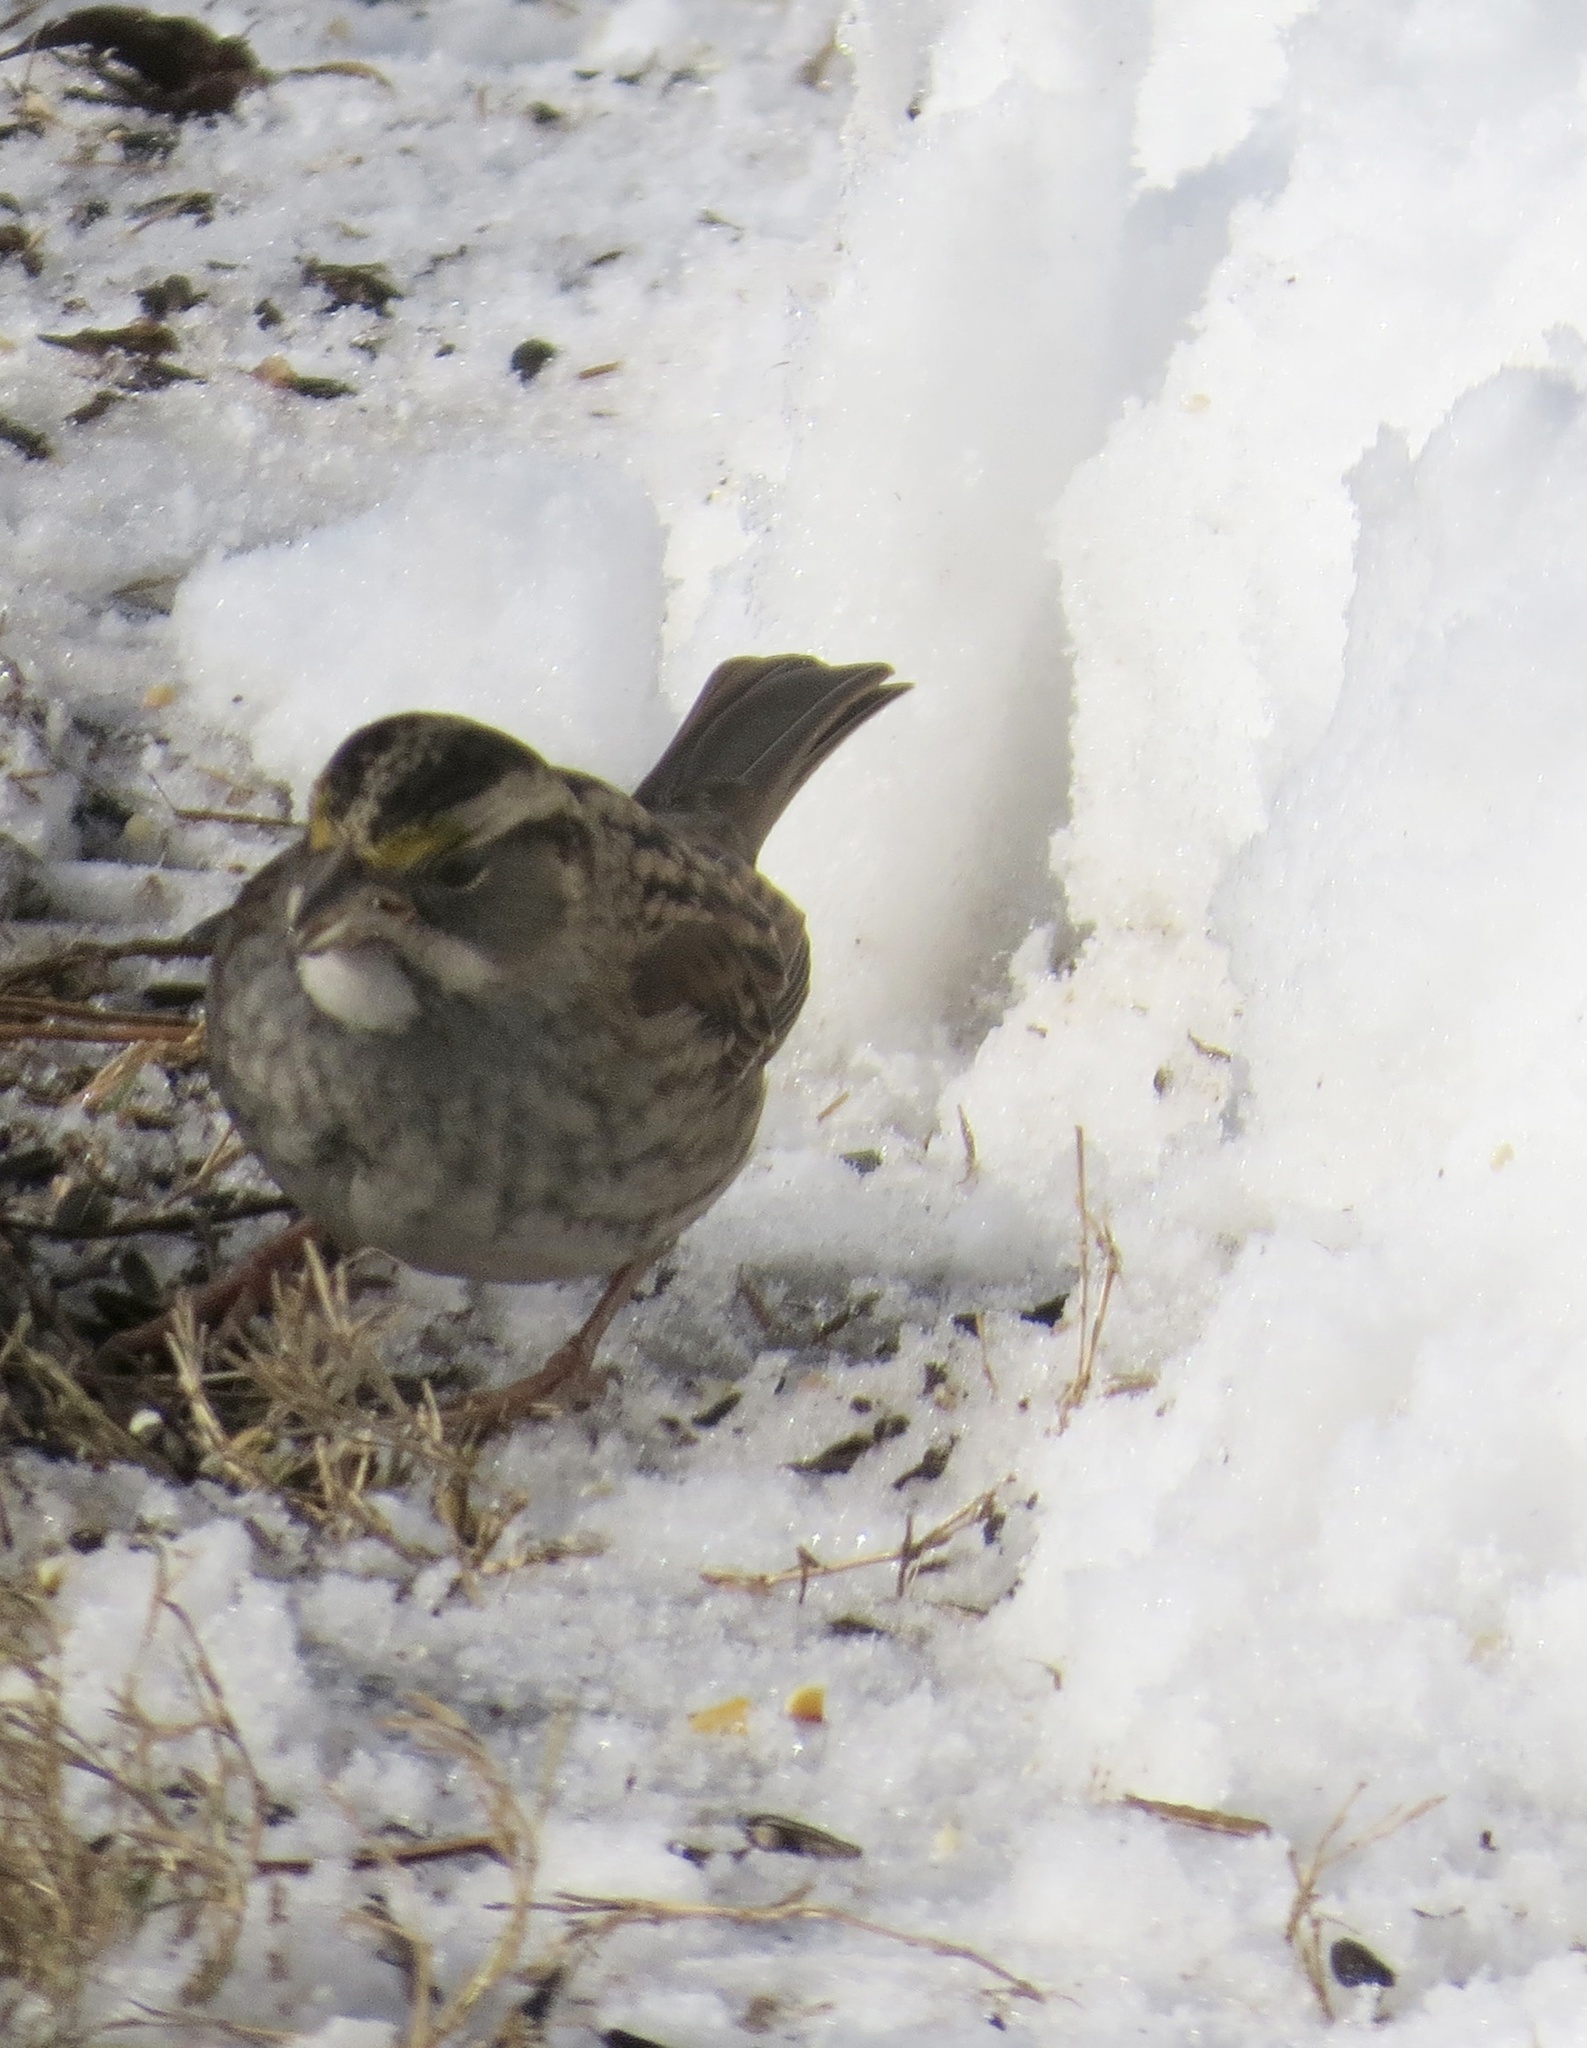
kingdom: Animalia
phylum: Chordata
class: Aves
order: Passeriformes
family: Passerellidae
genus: Zonotrichia
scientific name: Zonotrichia albicollis
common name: White-throated sparrow
